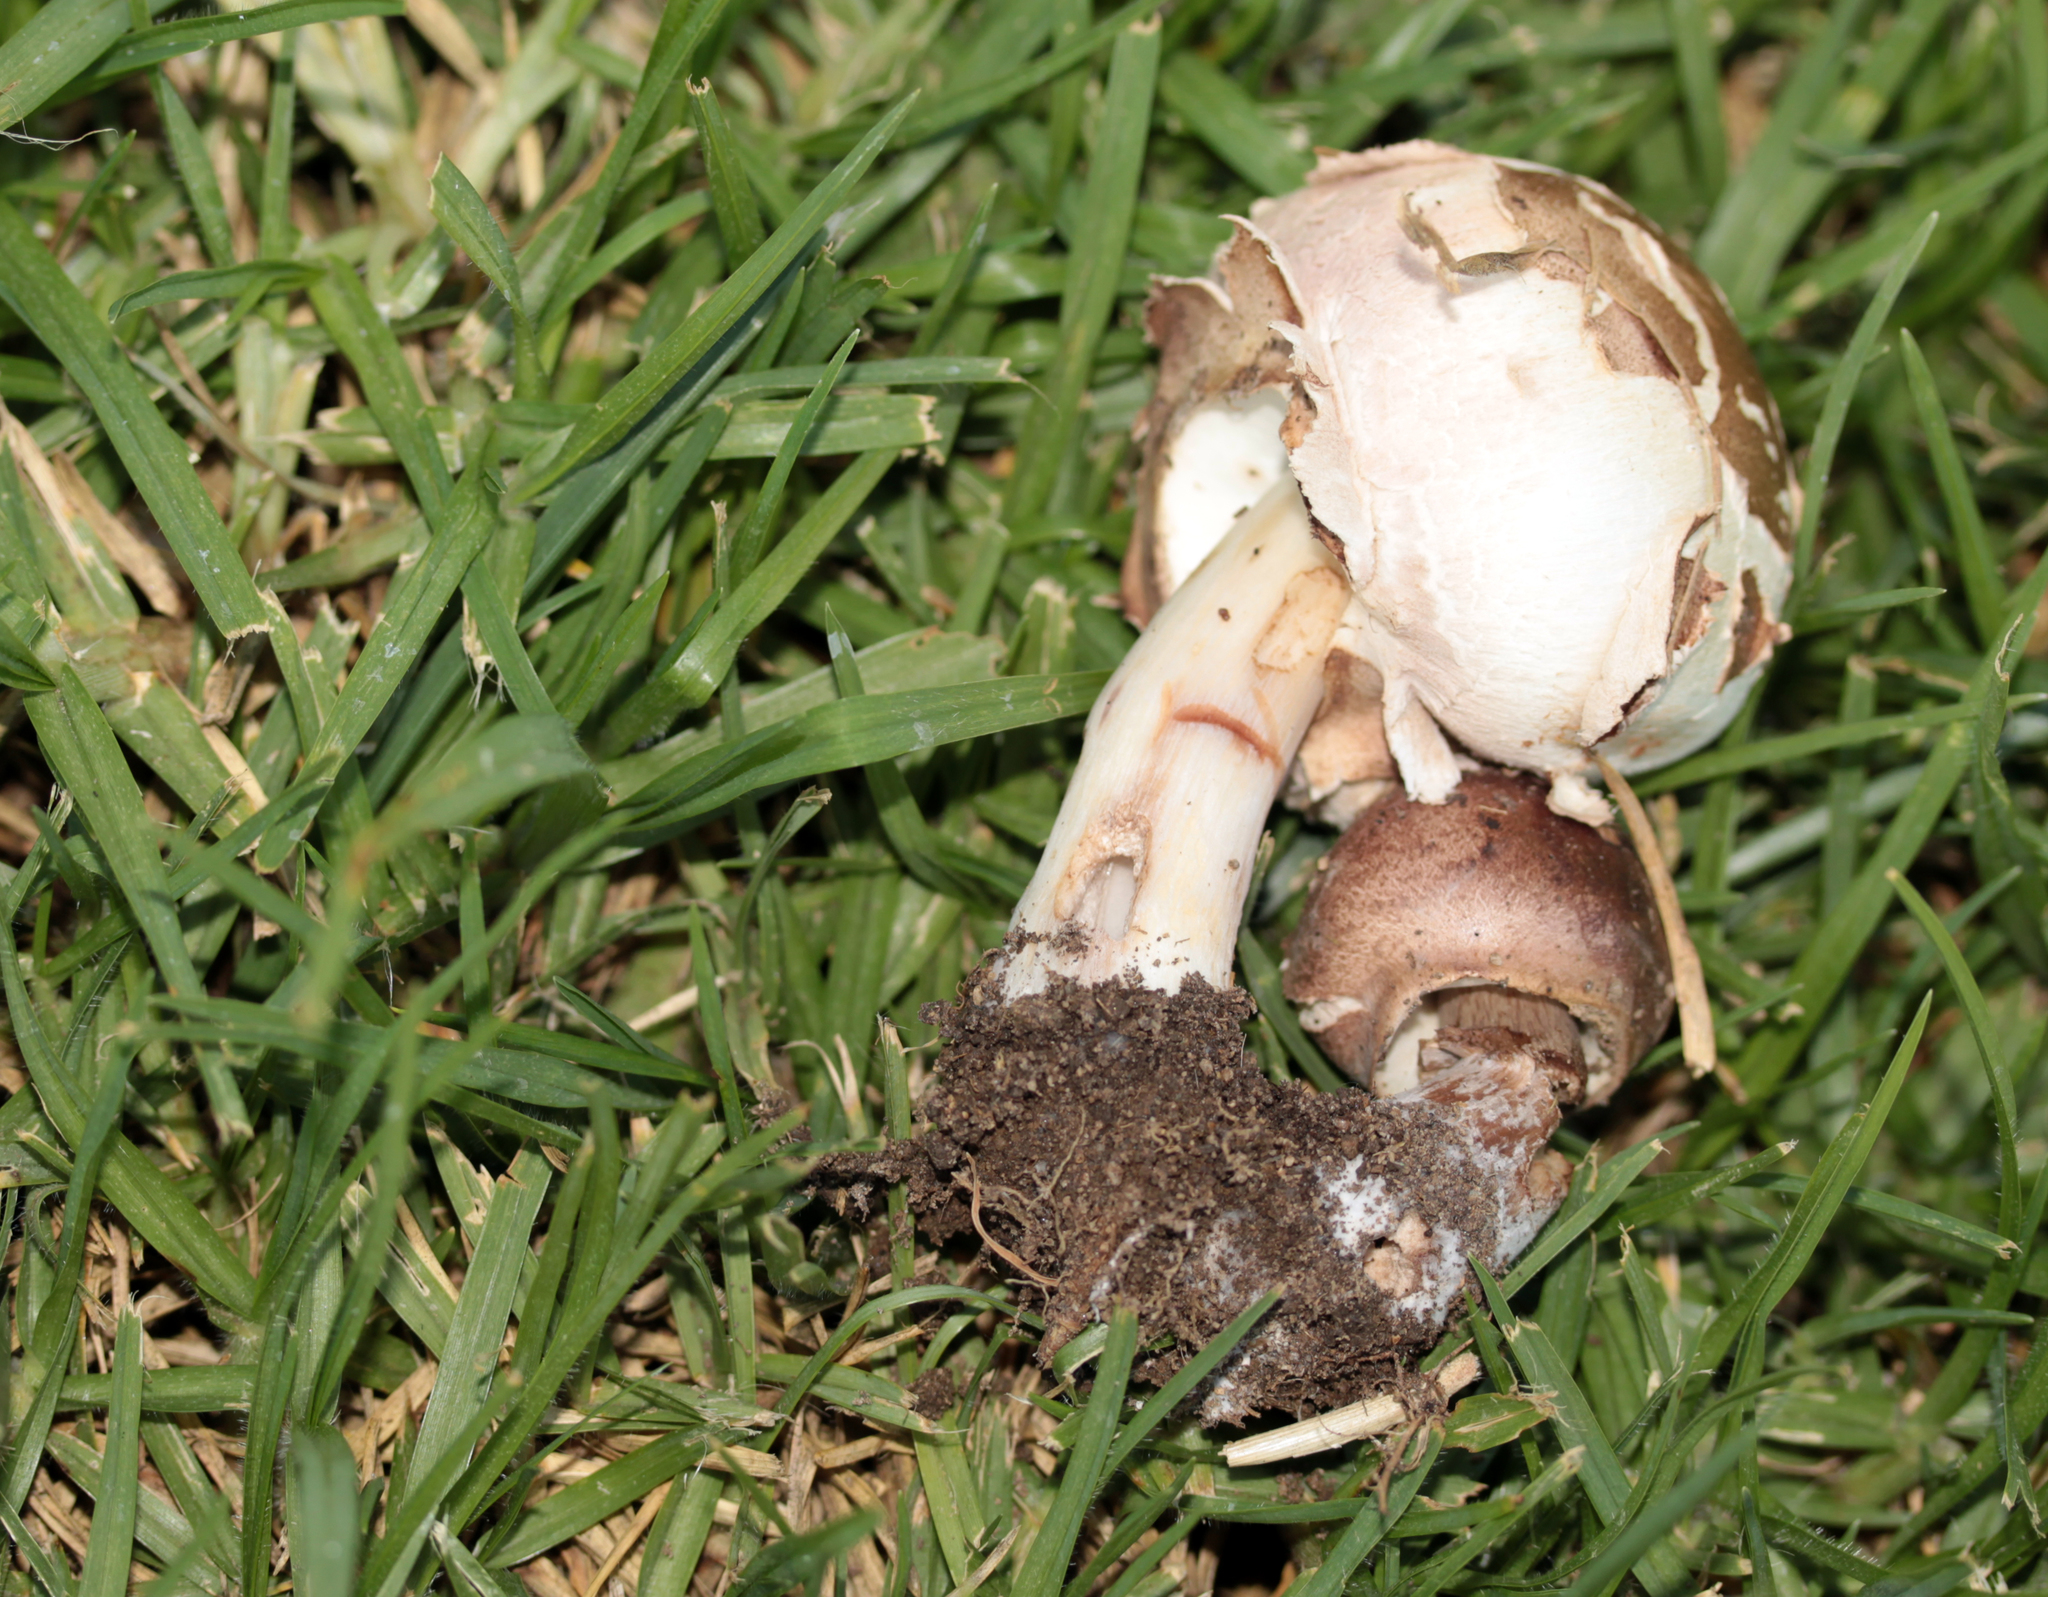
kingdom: Fungi
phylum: Basidiomycota
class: Agaricomycetes
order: Agaricales
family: Agaricaceae
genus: Chlorophyllum
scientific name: Chlorophyllum molybdites
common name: False parasol
